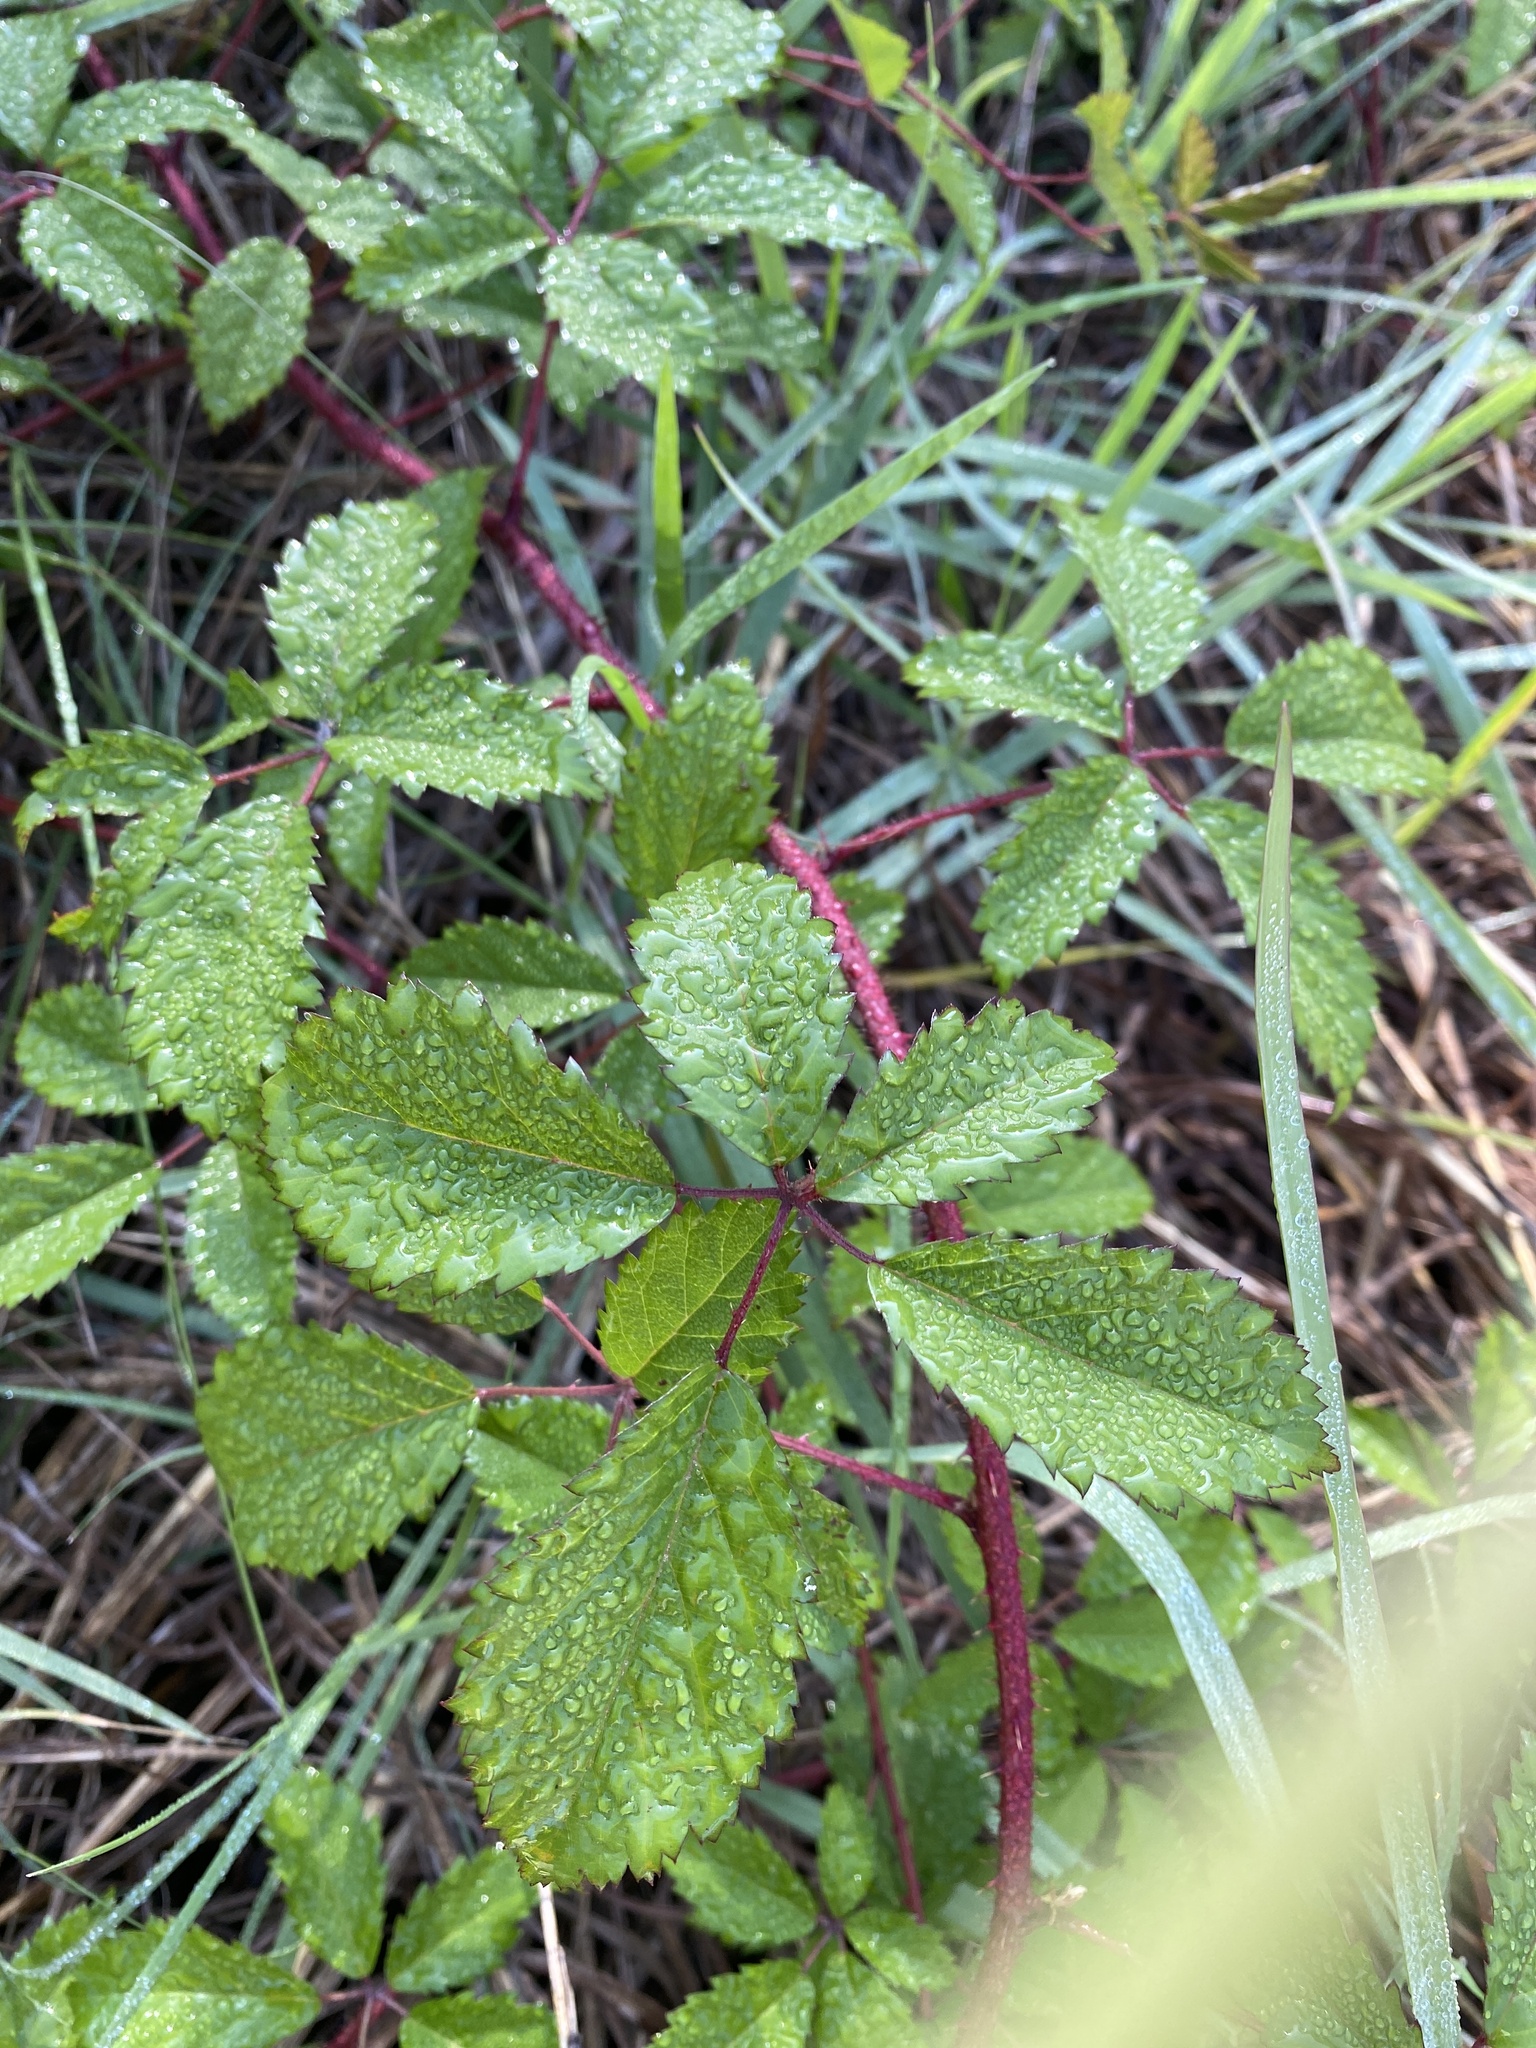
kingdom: Plantae
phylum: Tracheophyta
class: Magnoliopsida
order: Rosales
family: Rosaceae
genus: Rubus
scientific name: Rubus trivialis
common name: Southern dewberry
